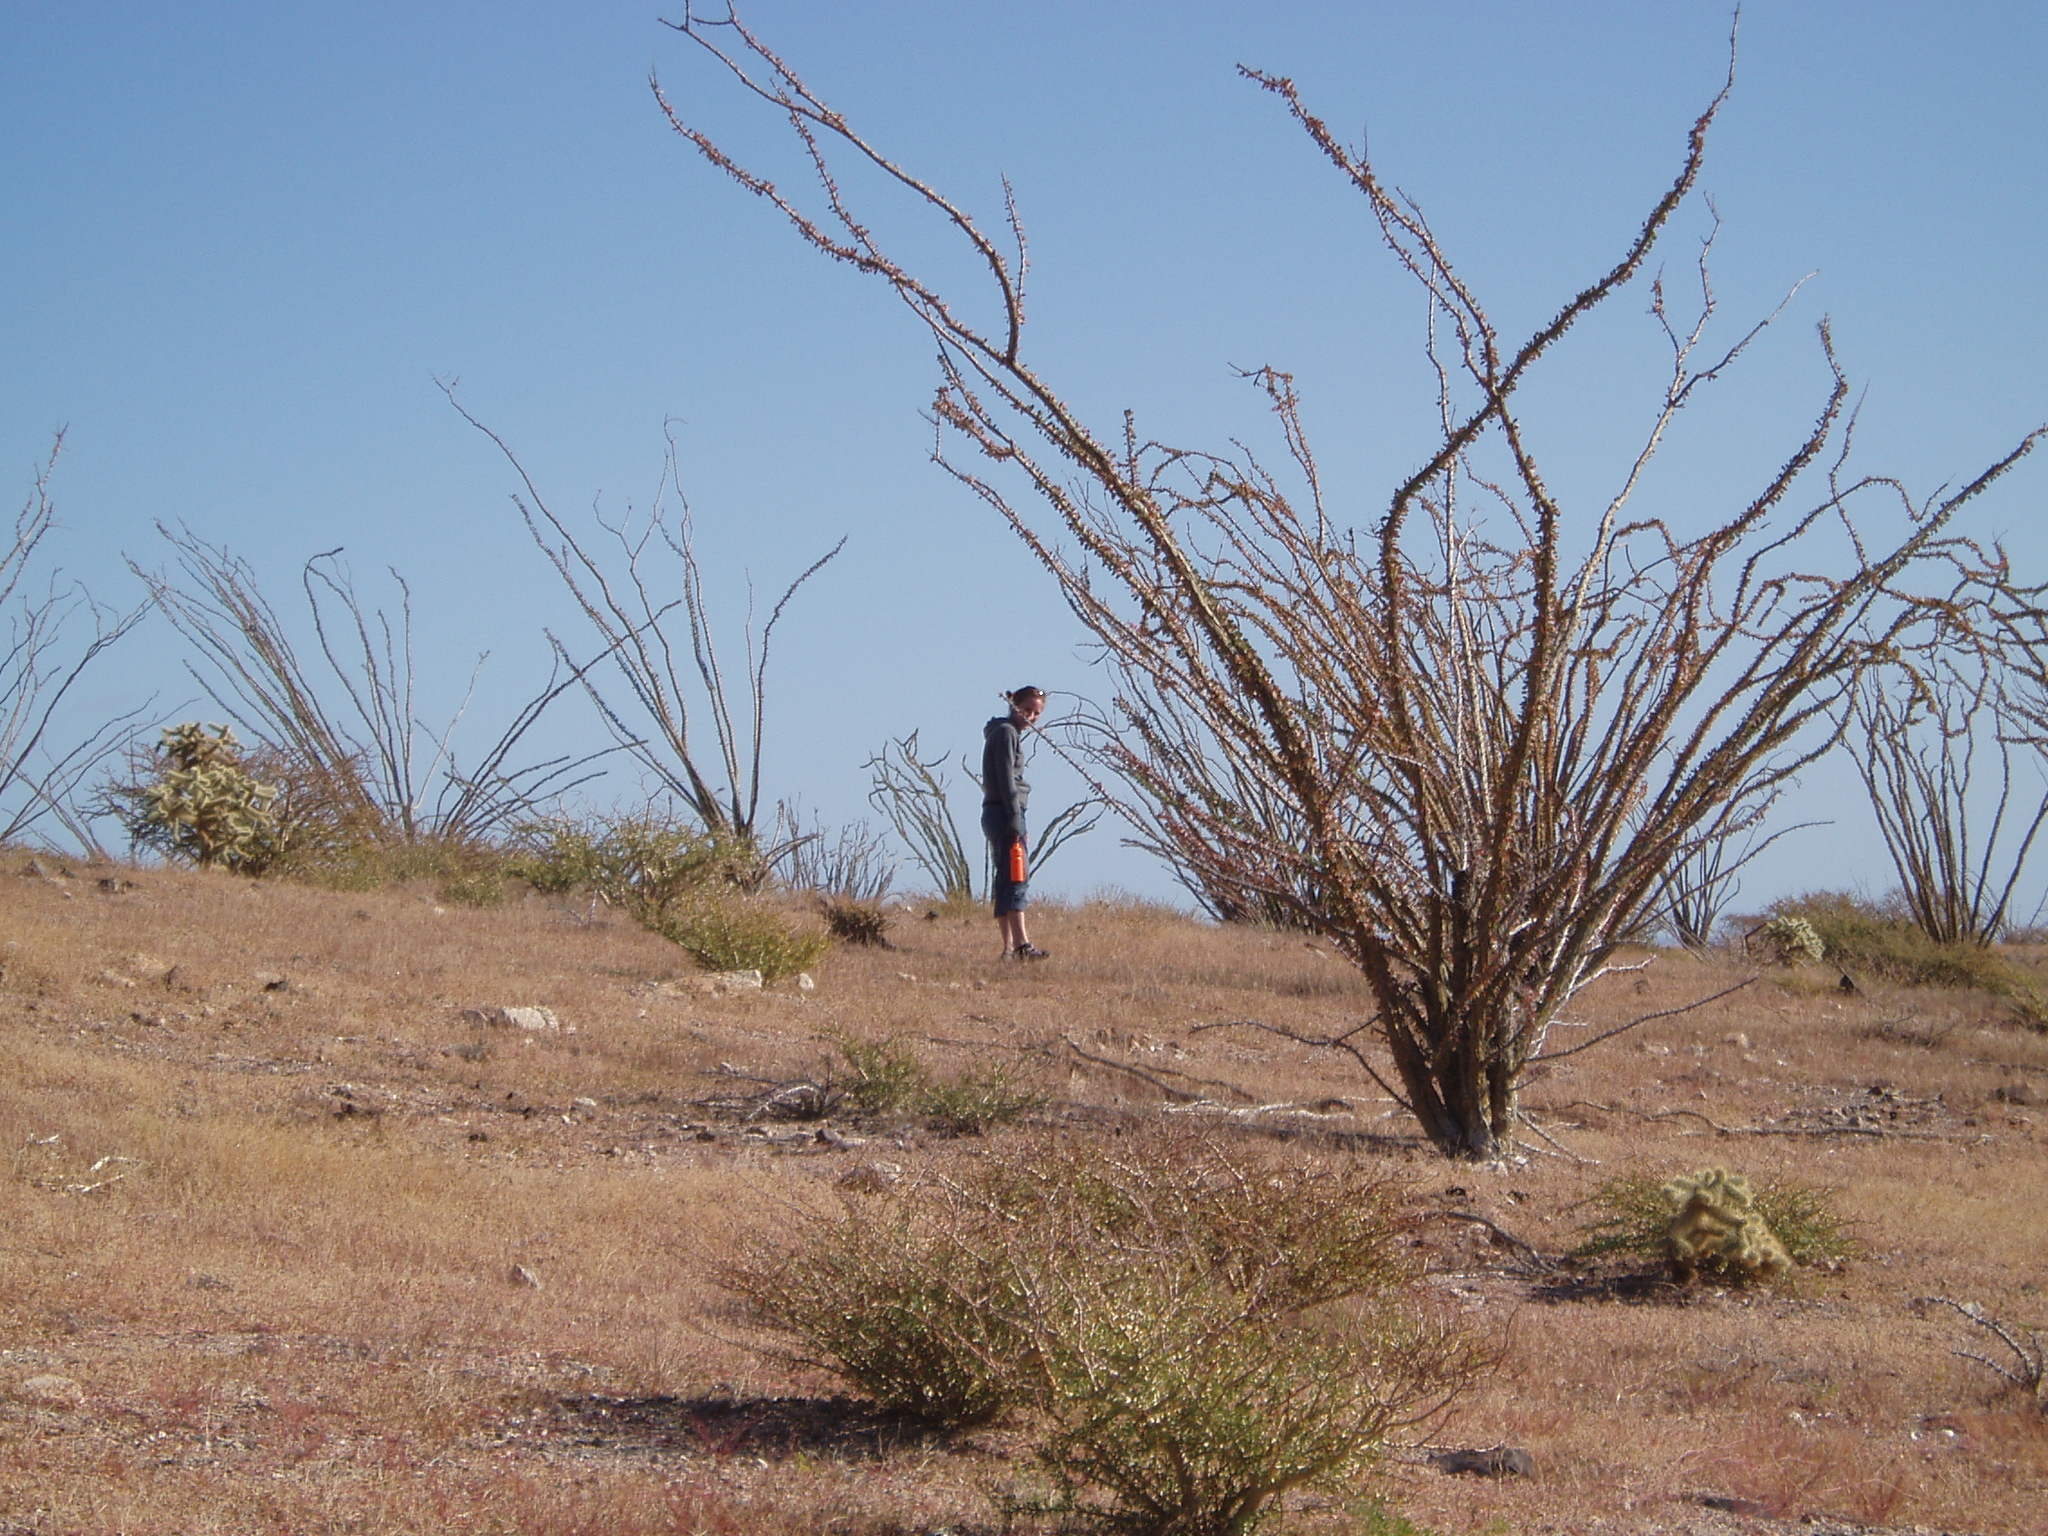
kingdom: Plantae
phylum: Tracheophyta
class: Magnoliopsida
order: Ericales
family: Fouquieriaceae
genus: Fouquieria
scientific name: Fouquieria splendens
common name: Vine-cactus
